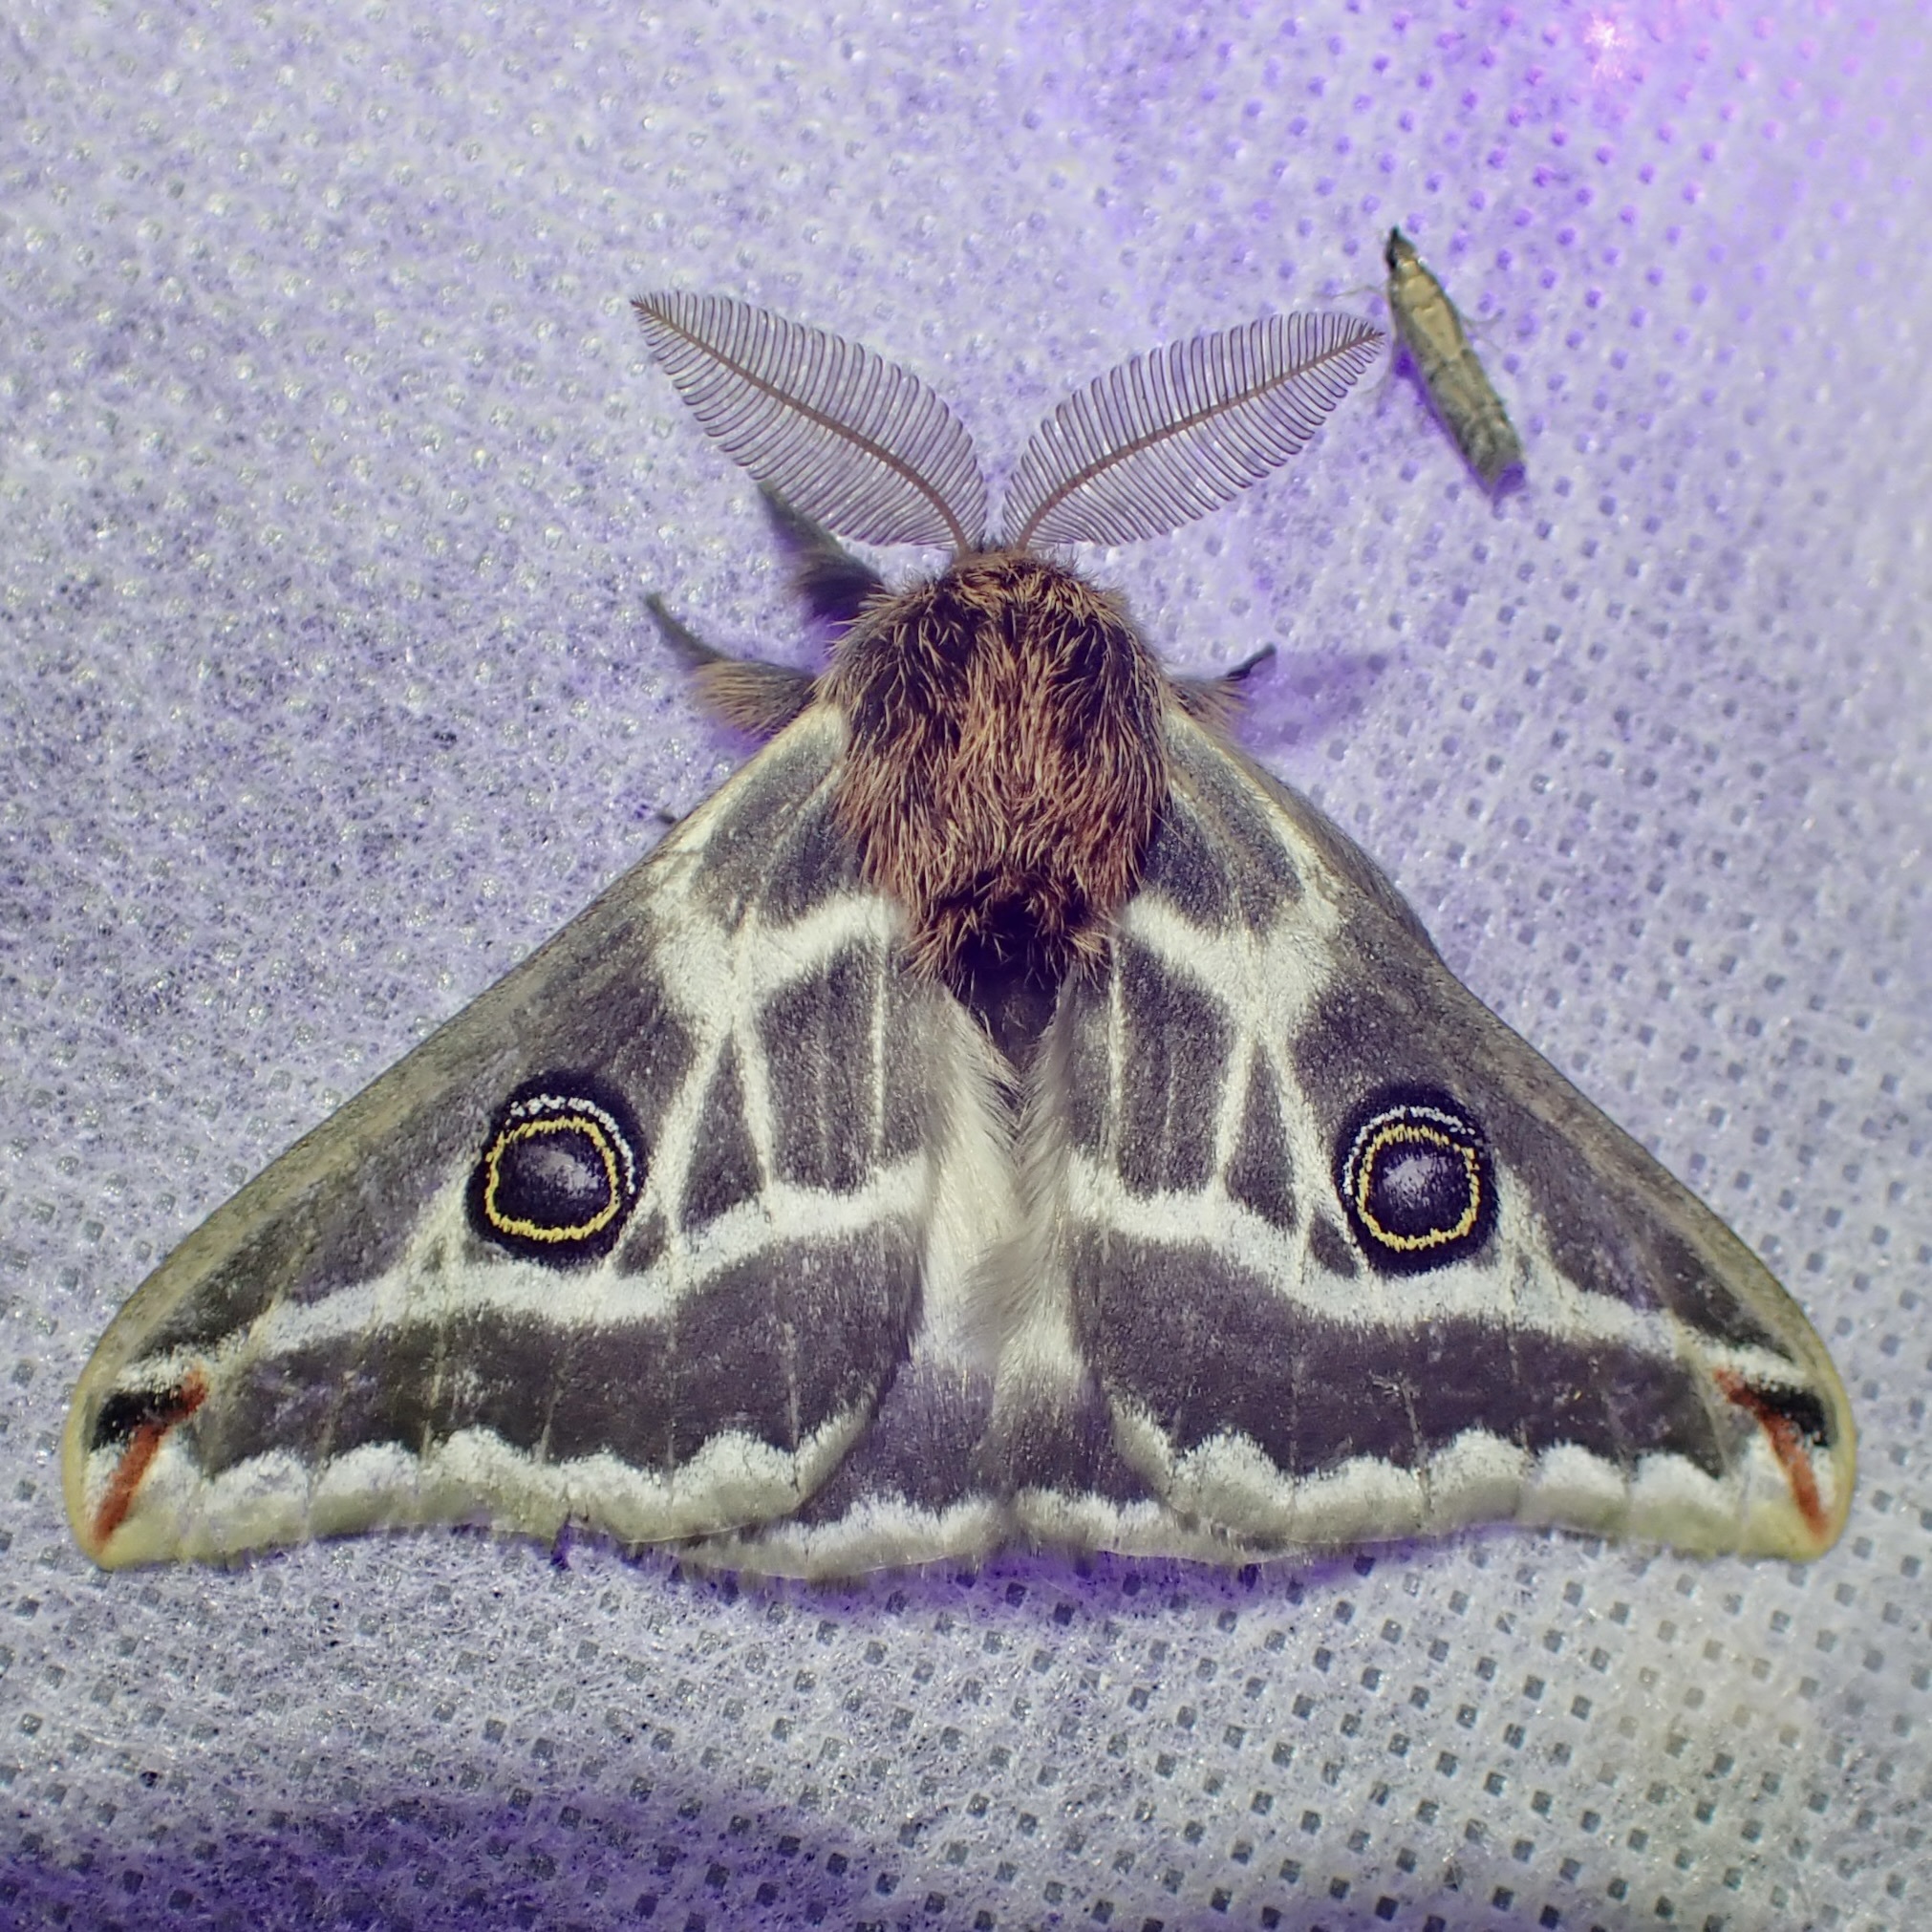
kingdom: Animalia
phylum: Arthropoda
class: Insecta
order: Lepidoptera
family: Saturniidae
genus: Saturnia
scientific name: Saturnia anona
